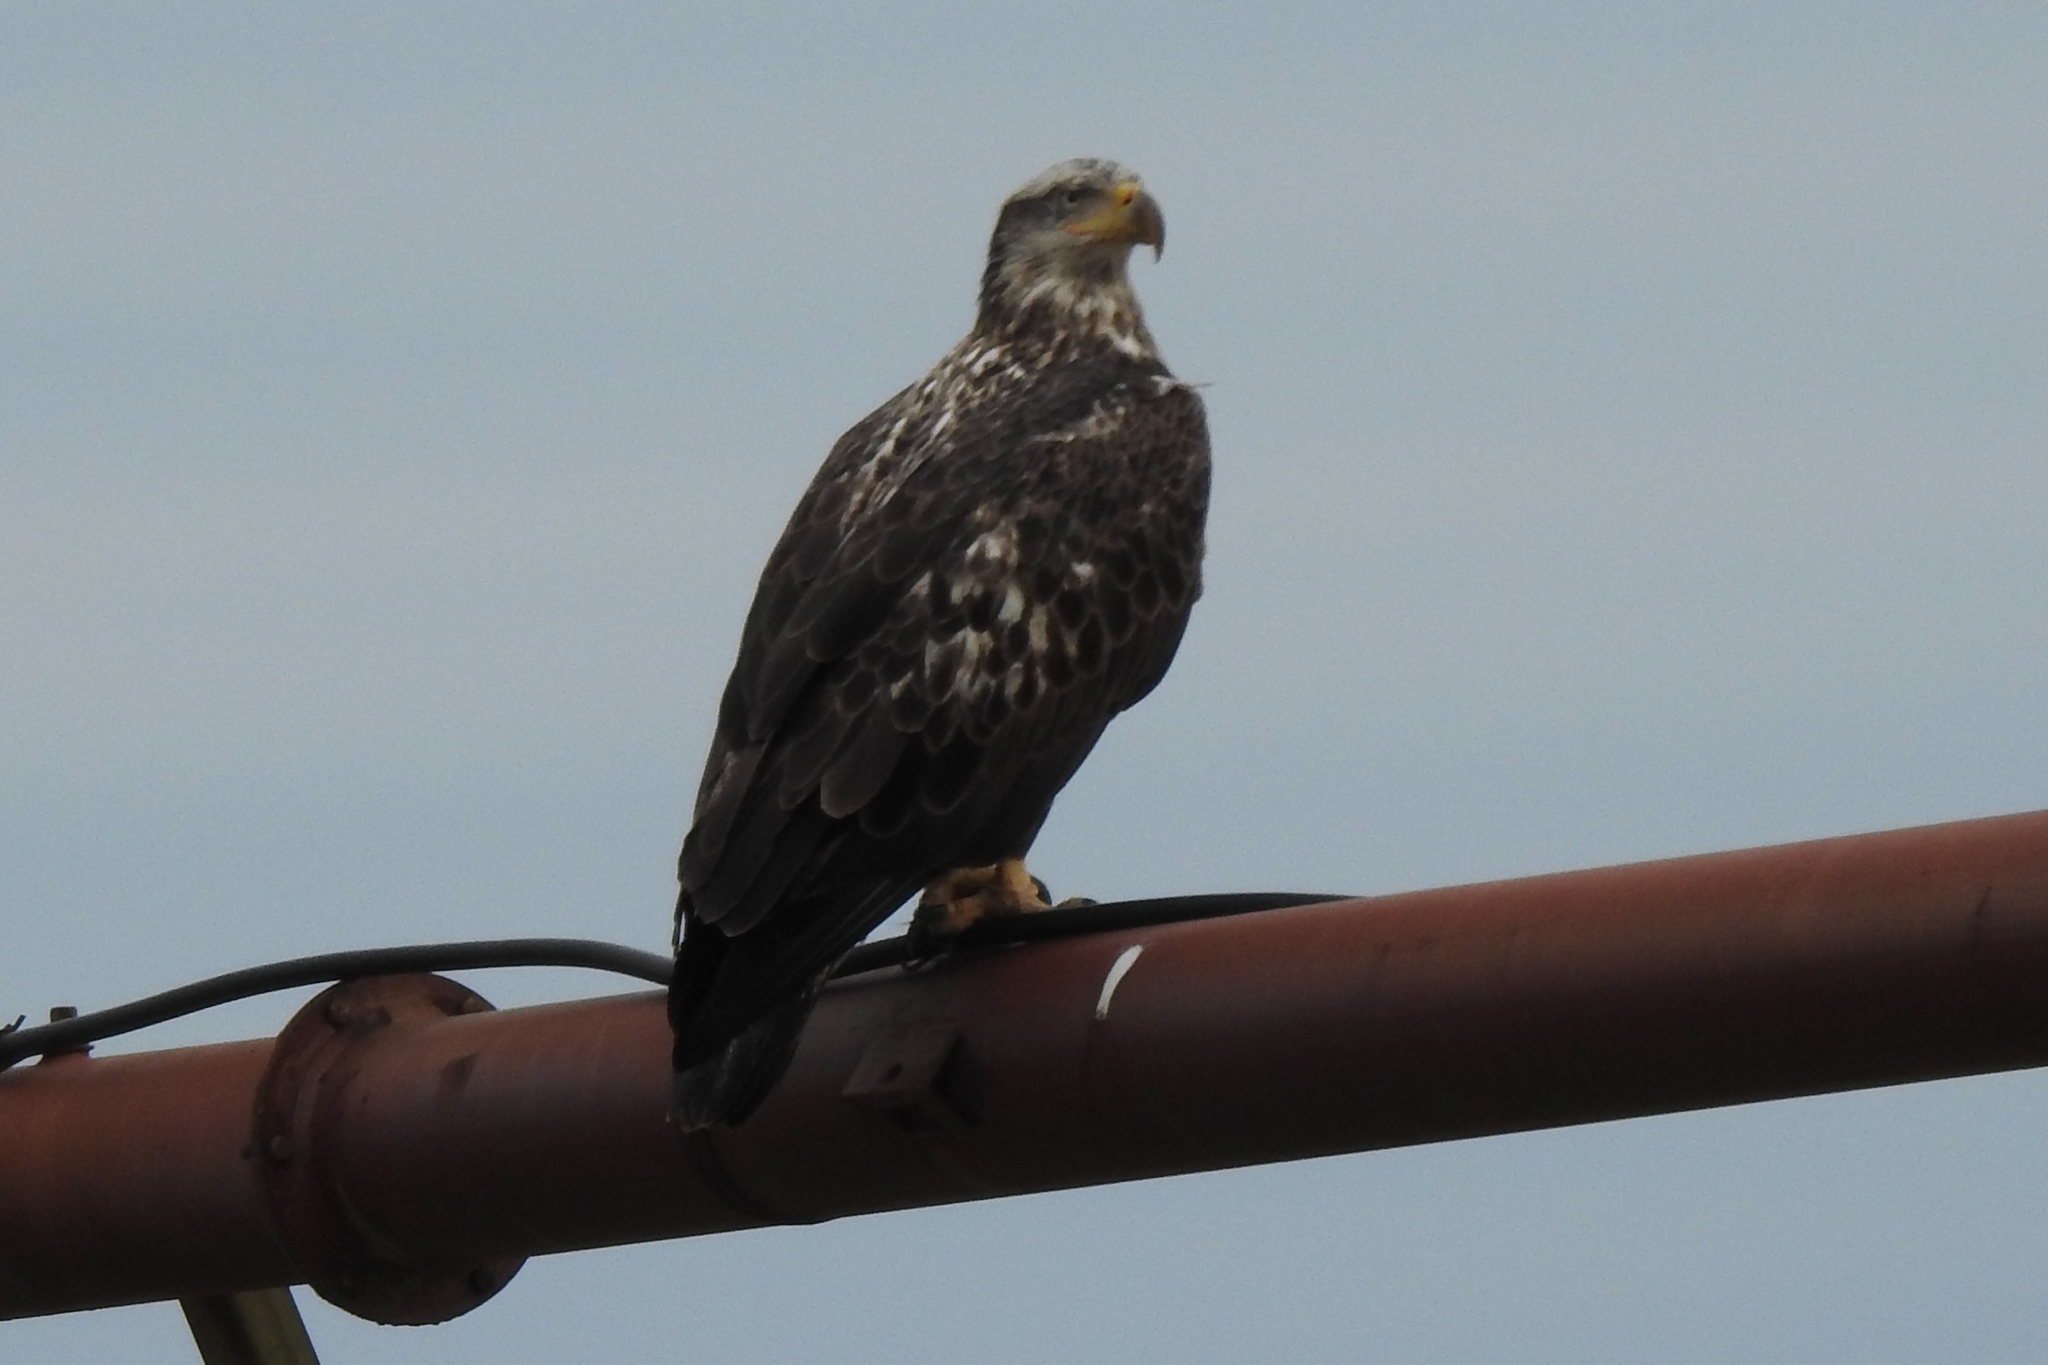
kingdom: Animalia
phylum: Chordata
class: Aves
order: Accipitriformes
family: Accipitridae
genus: Haliaeetus
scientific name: Haliaeetus leucocephalus
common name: Bald eagle
